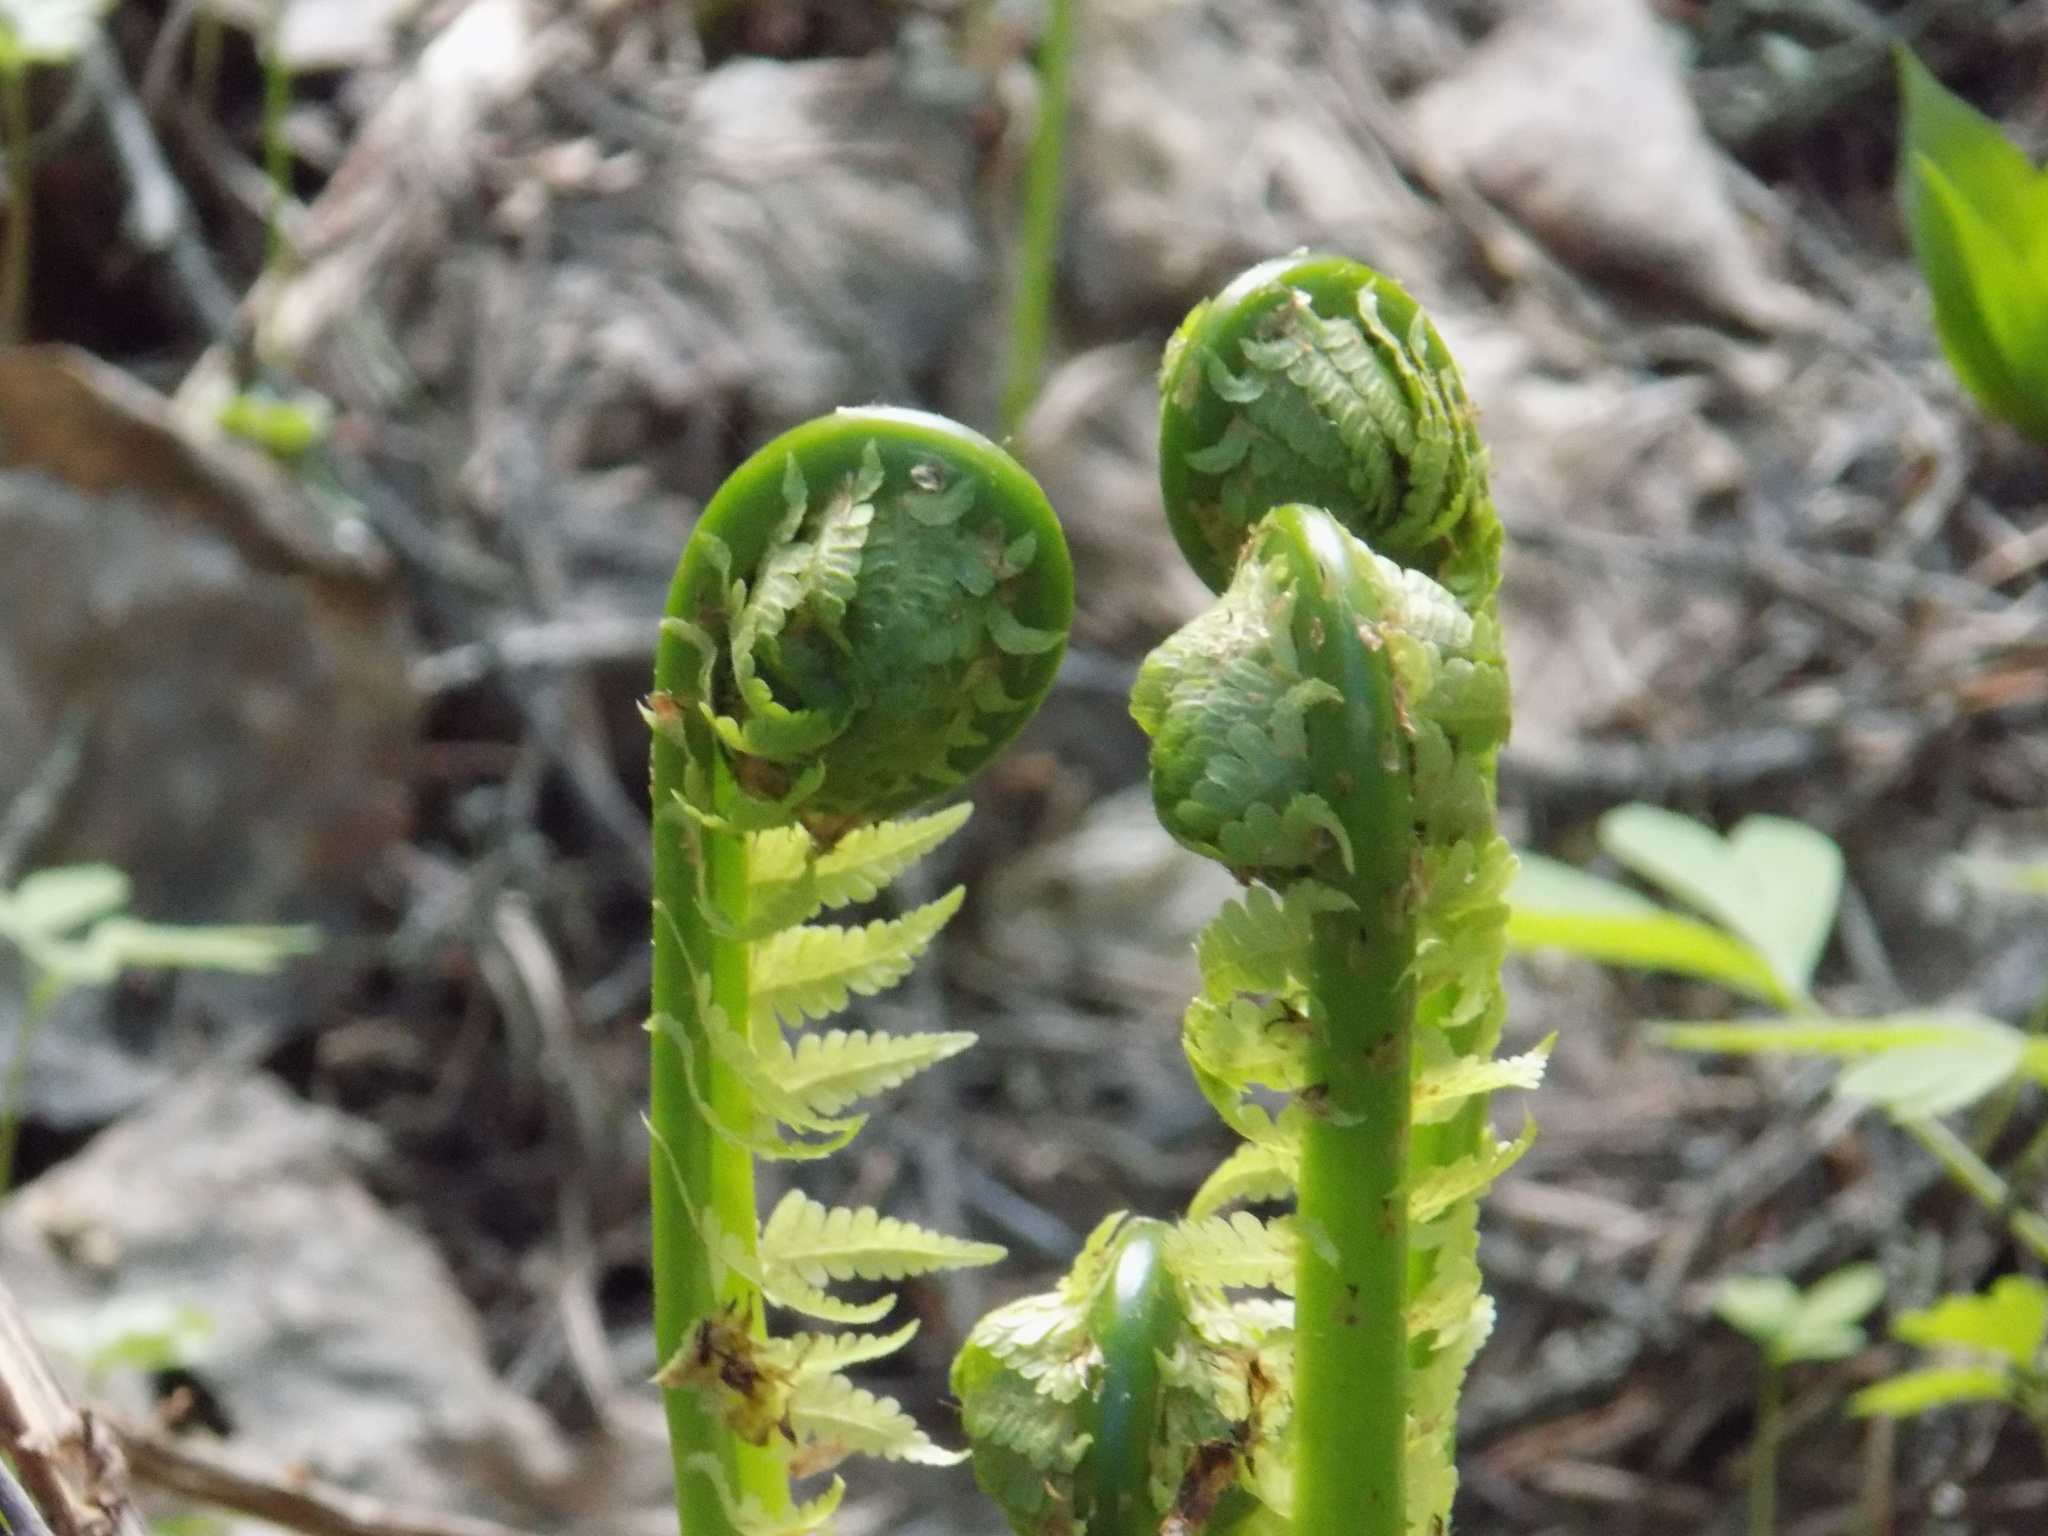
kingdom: Plantae
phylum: Tracheophyta
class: Polypodiopsida
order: Polypodiales
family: Onocleaceae
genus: Matteuccia
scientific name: Matteuccia struthiopteris
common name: Ostrich fern
